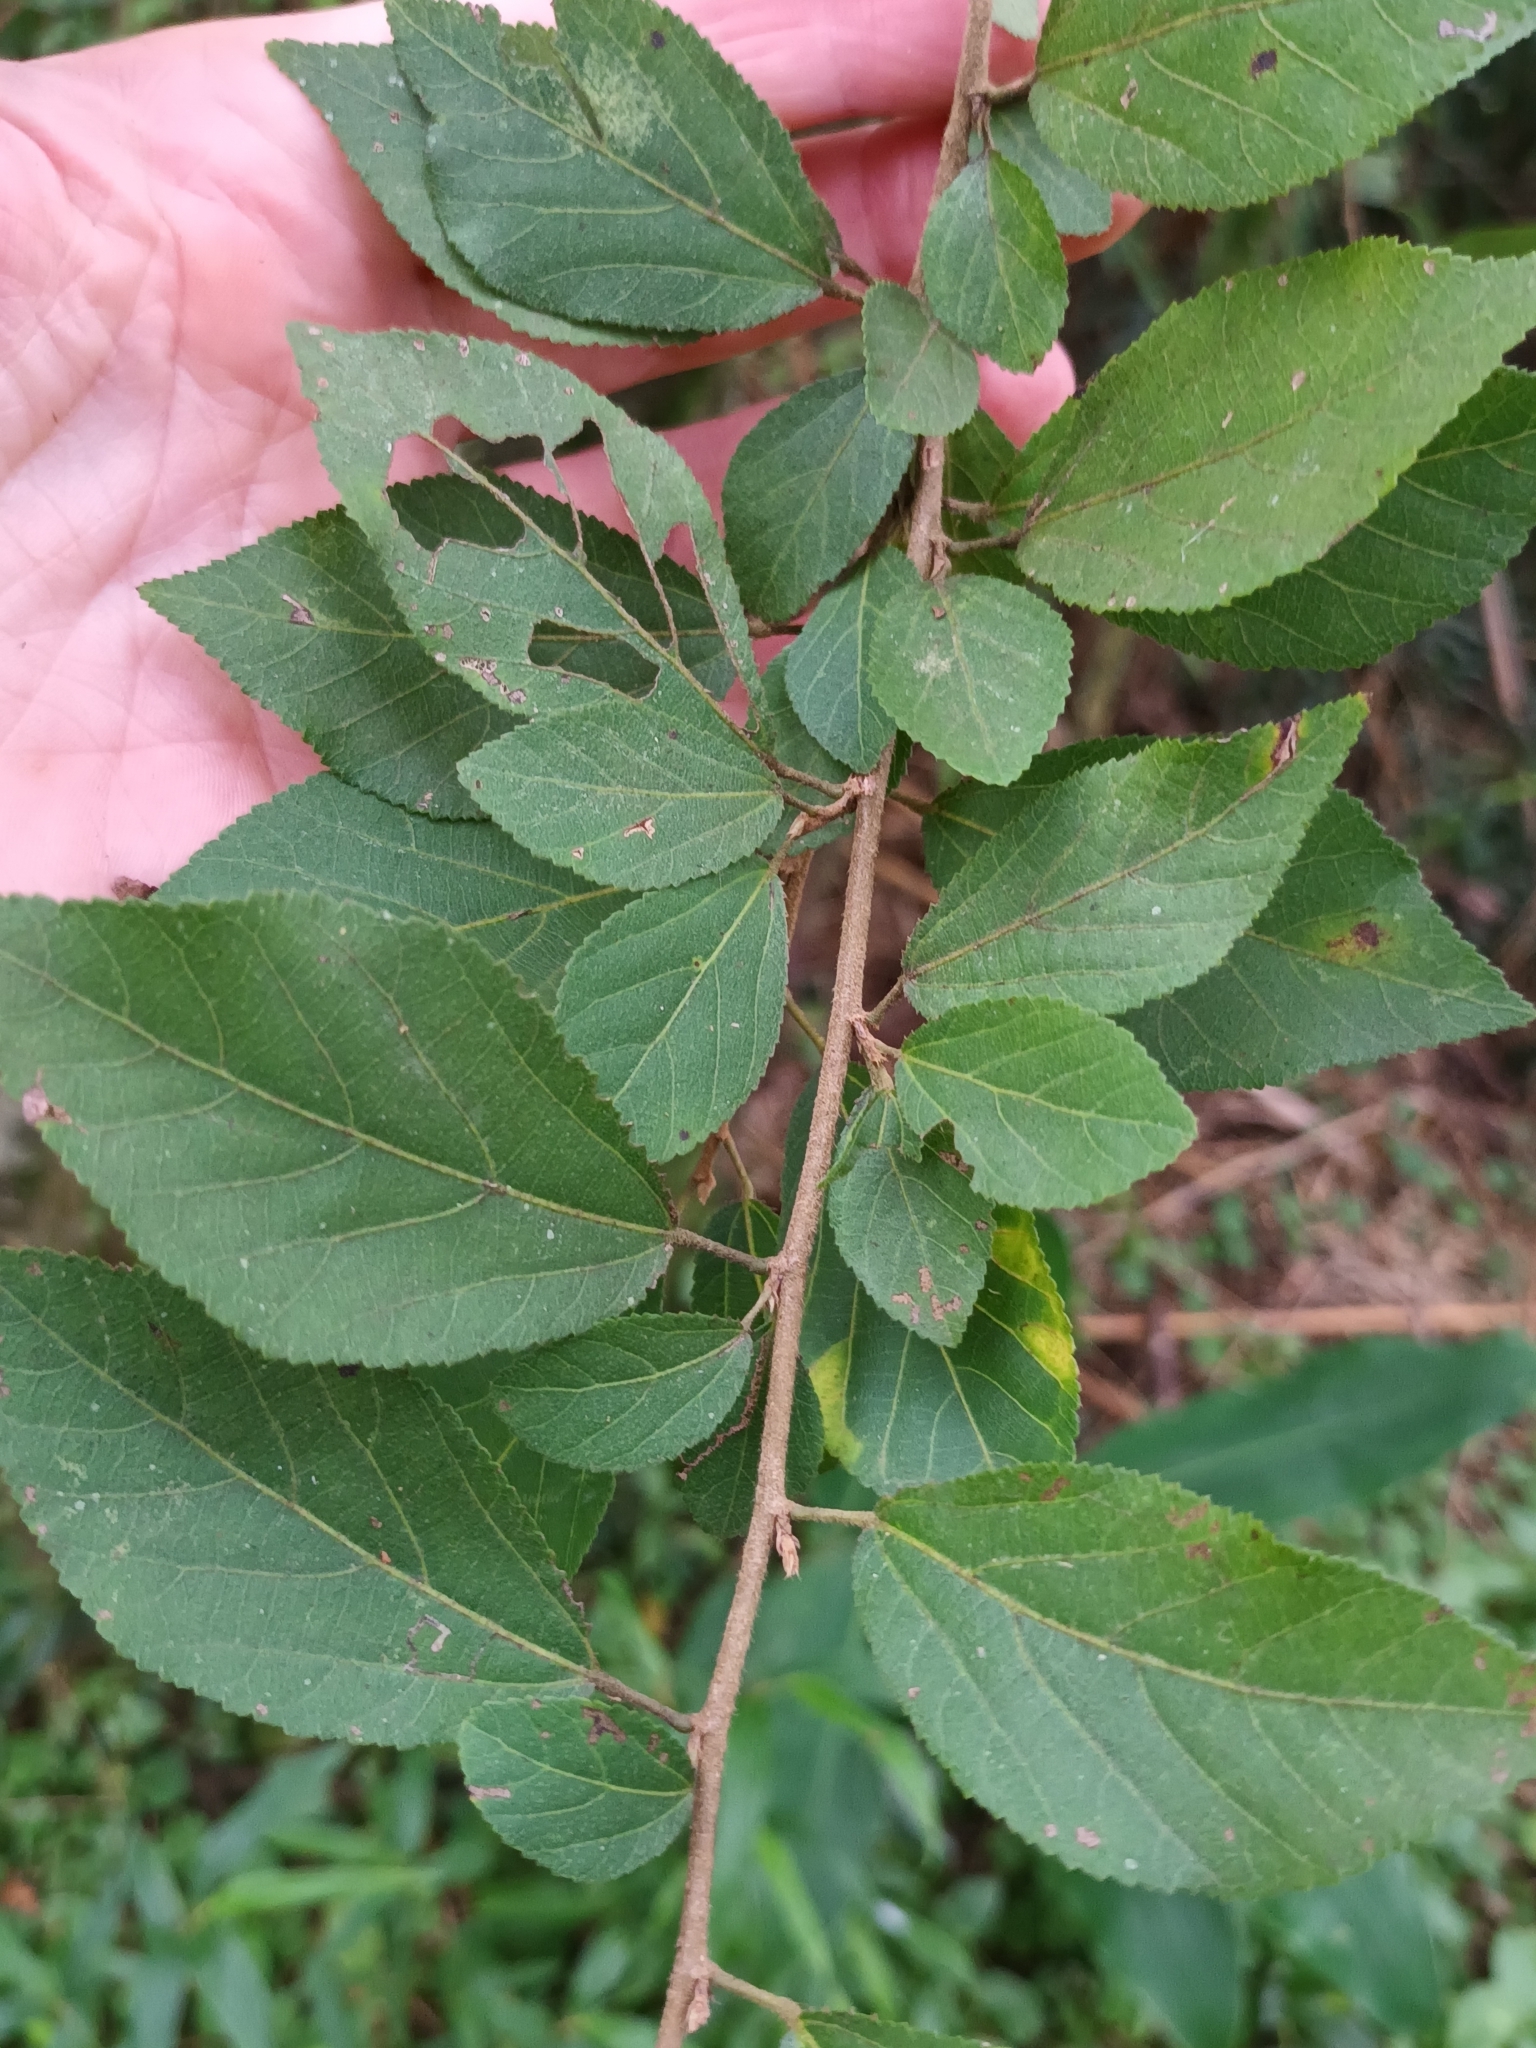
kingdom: Plantae
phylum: Tracheophyta
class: Magnoliopsida
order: Malvales
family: Malvaceae
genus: Grewia
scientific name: Grewia occidentalis
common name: Crossberry
